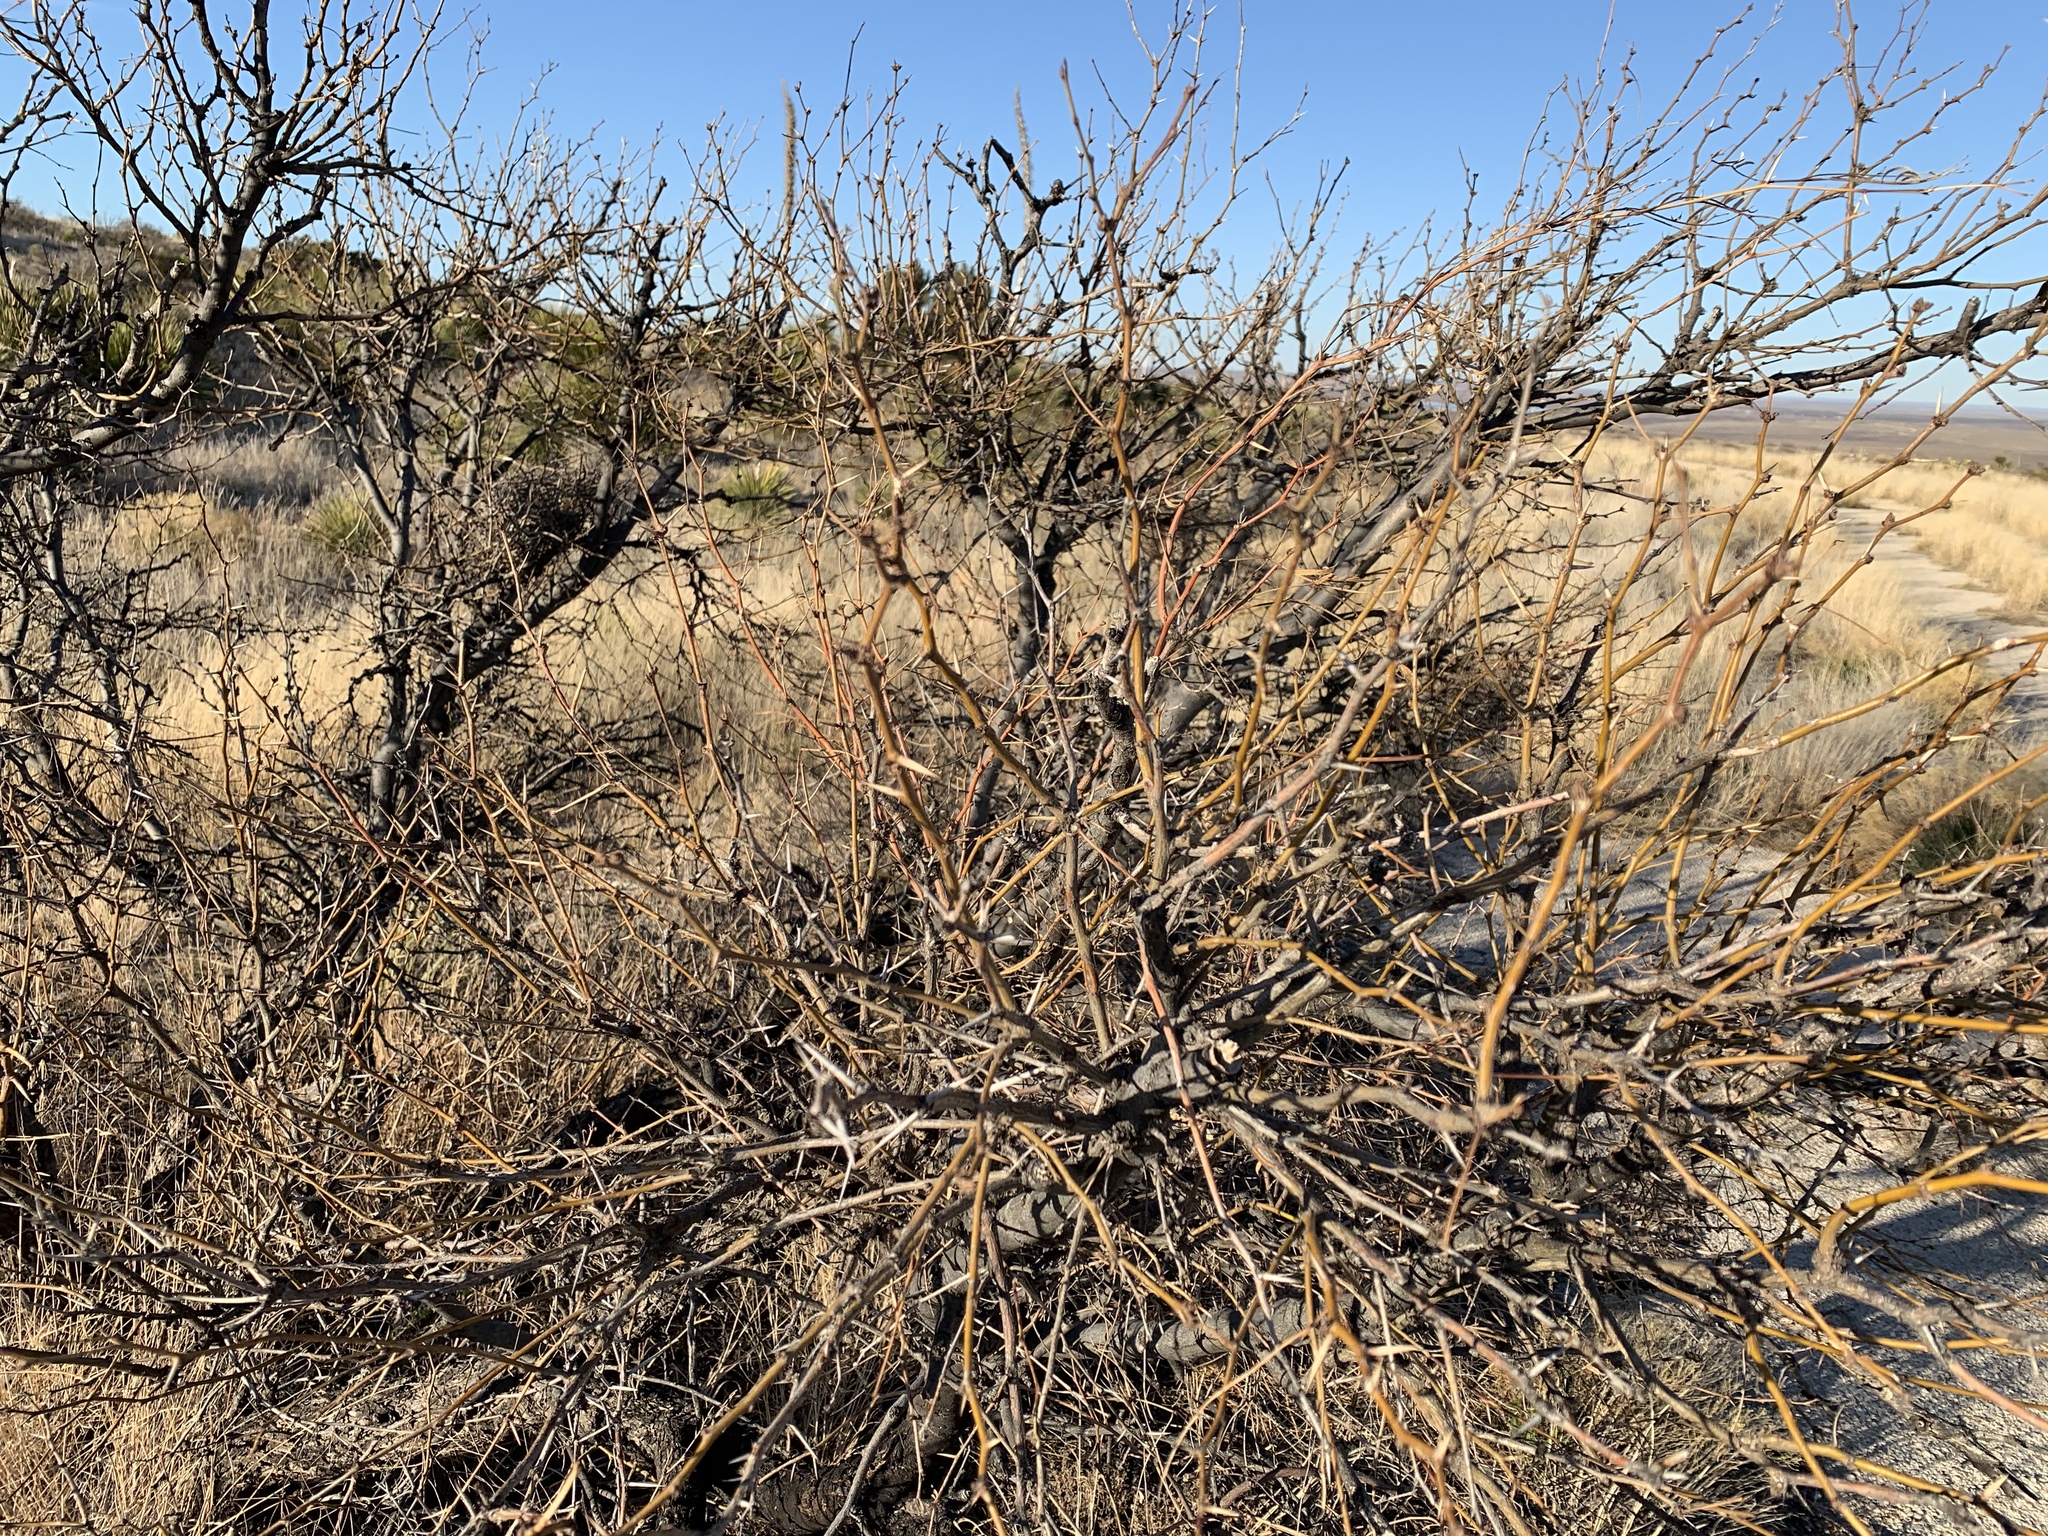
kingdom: Plantae
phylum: Tracheophyta
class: Magnoliopsida
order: Fabales
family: Fabaceae
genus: Prosopis
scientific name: Prosopis glandulosa
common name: Honey mesquite
